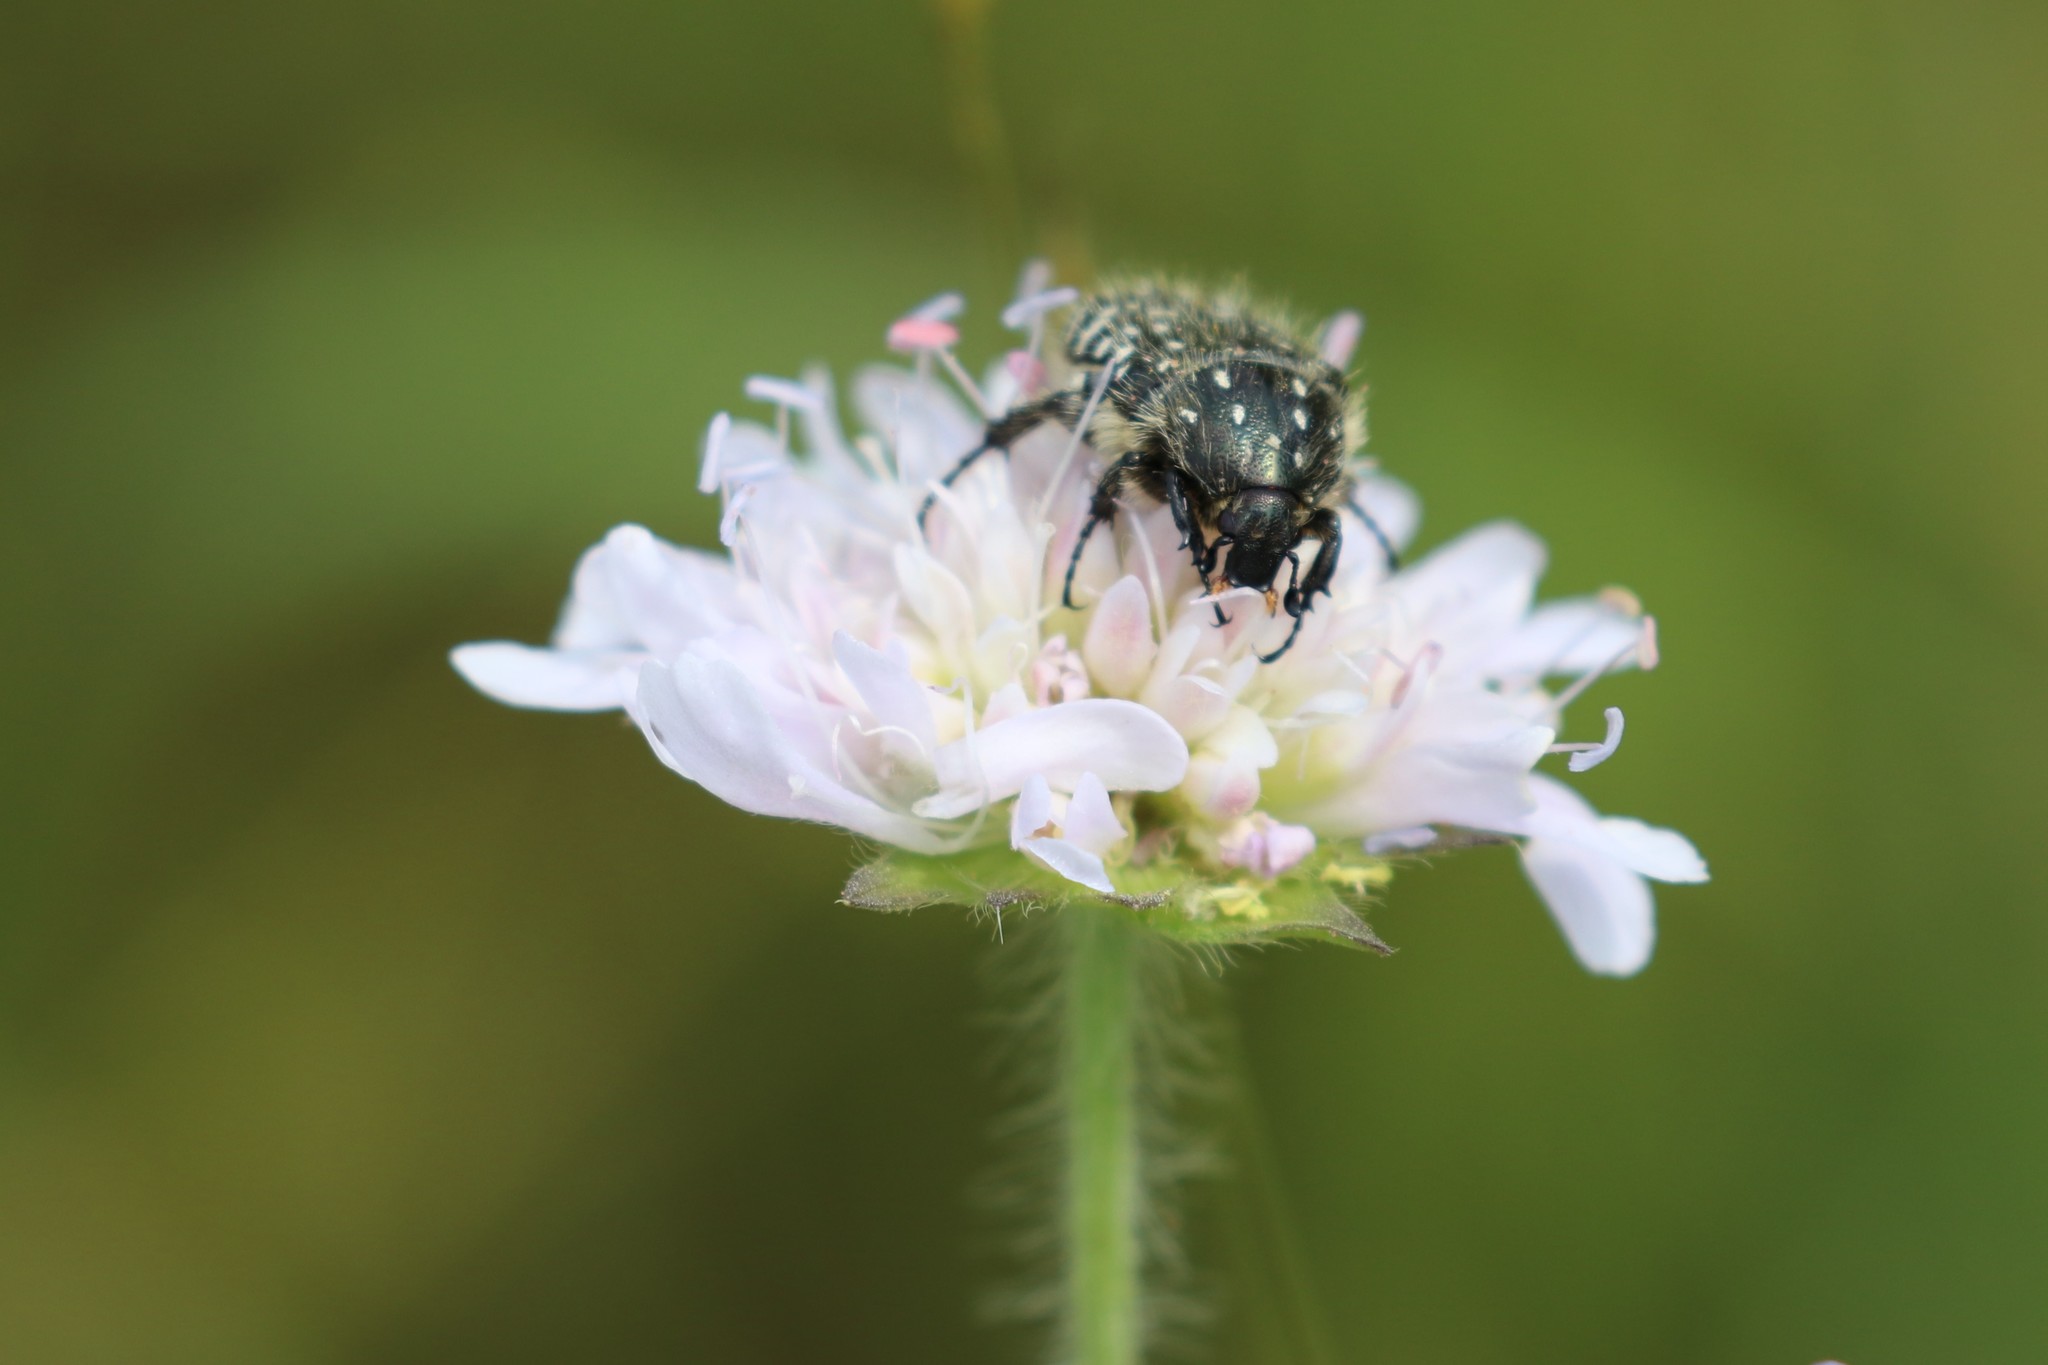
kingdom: Animalia
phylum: Arthropoda
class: Insecta
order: Coleoptera
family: Scarabaeidae
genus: Oxythyrea
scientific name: Oxythyrea funesta
